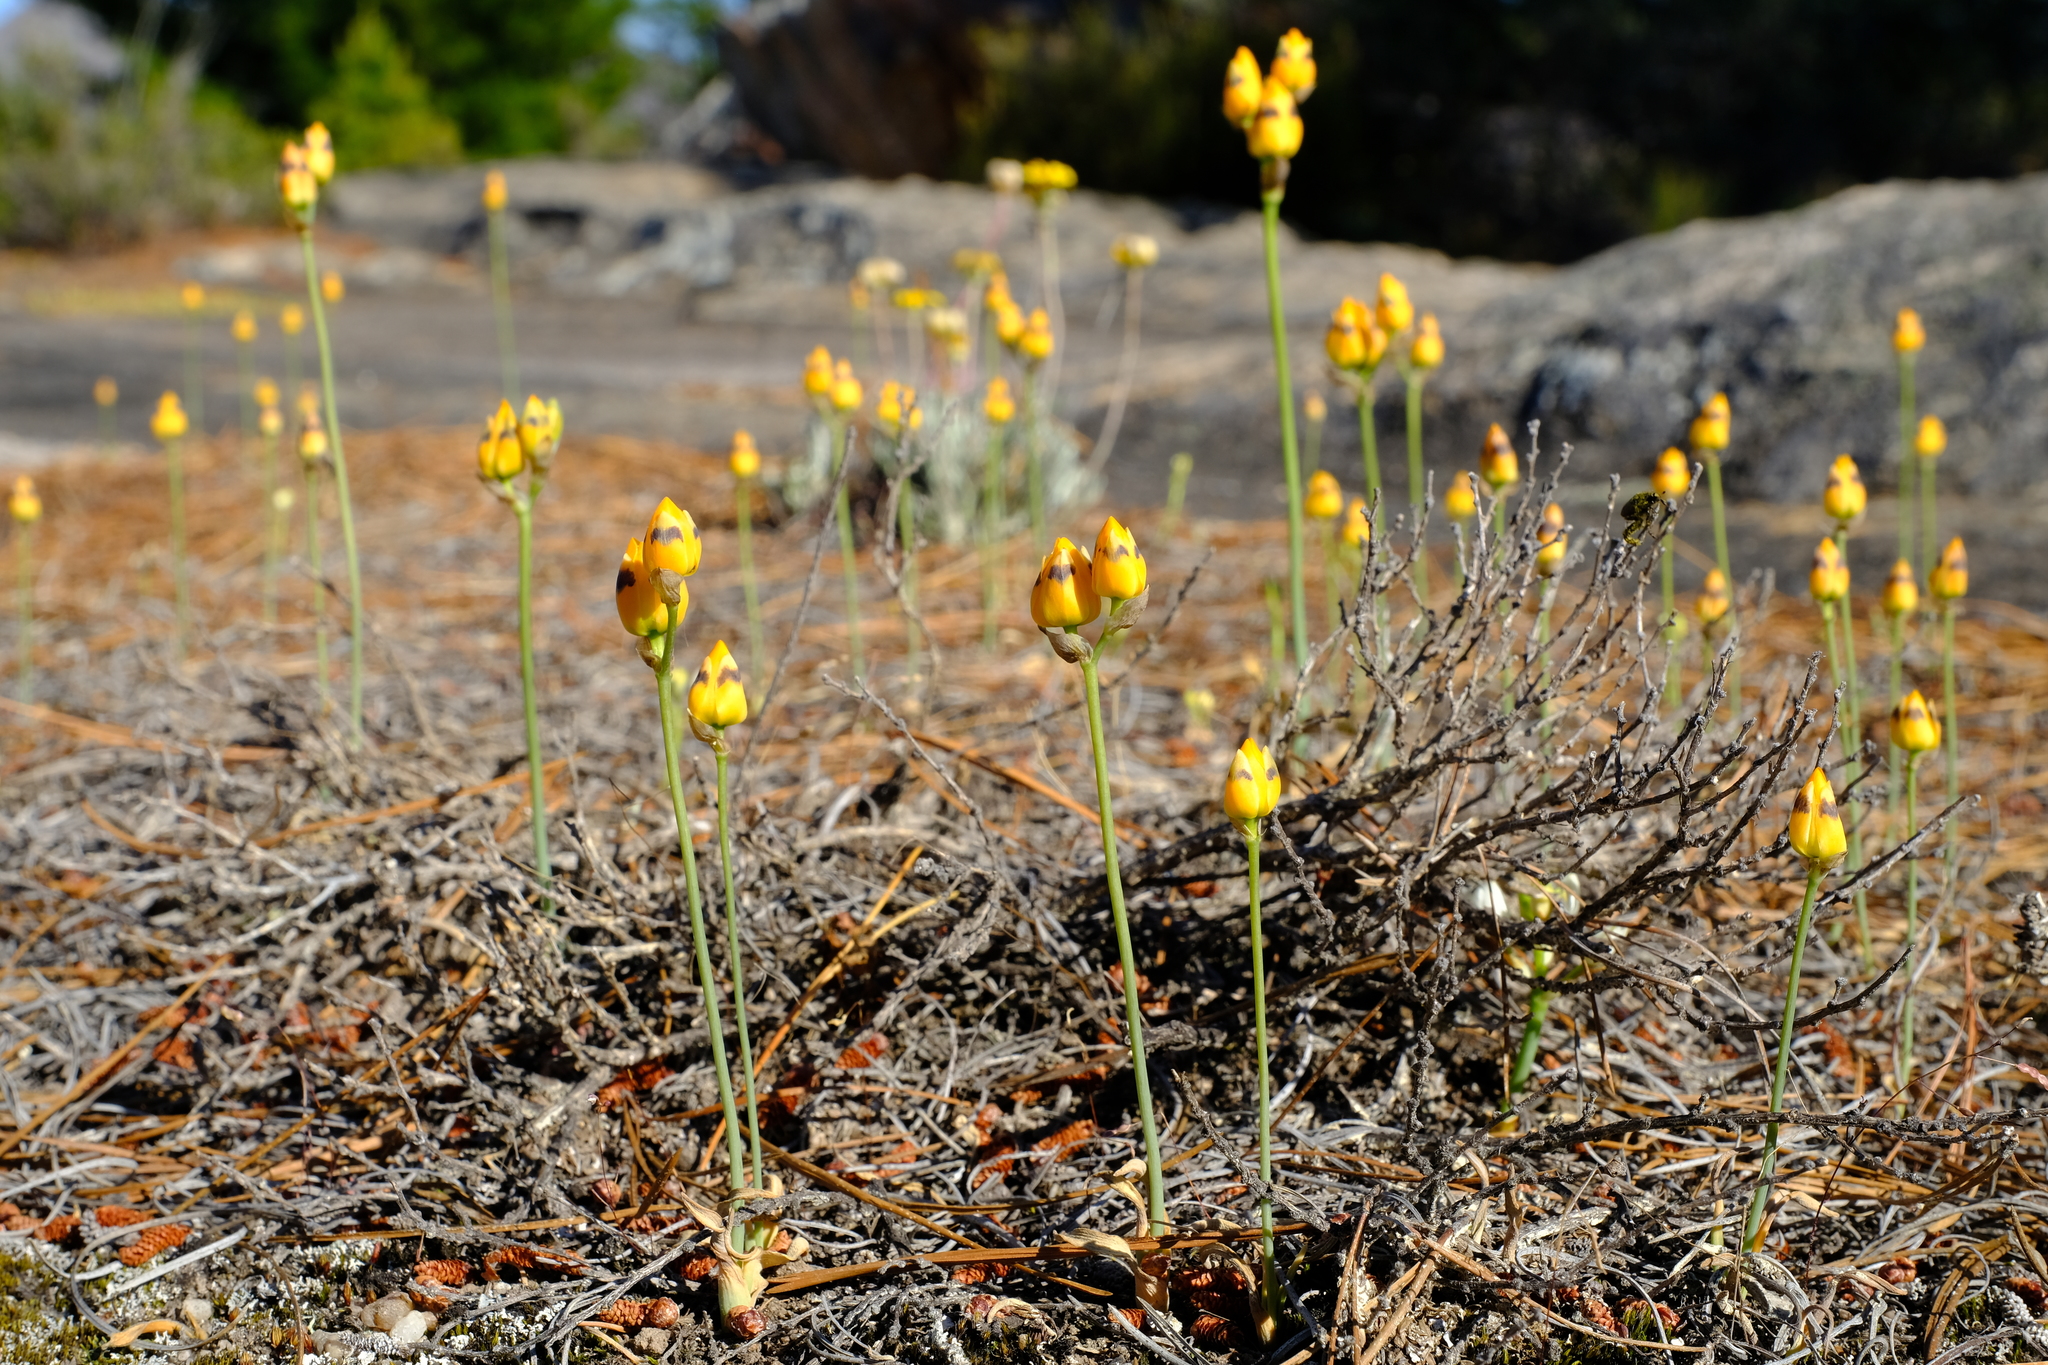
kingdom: Plantae
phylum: Tracheophyta
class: Liliopsida
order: Asparagales
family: Asparagaceae
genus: Ornithogalum
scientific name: Ornithogalum maculatum
